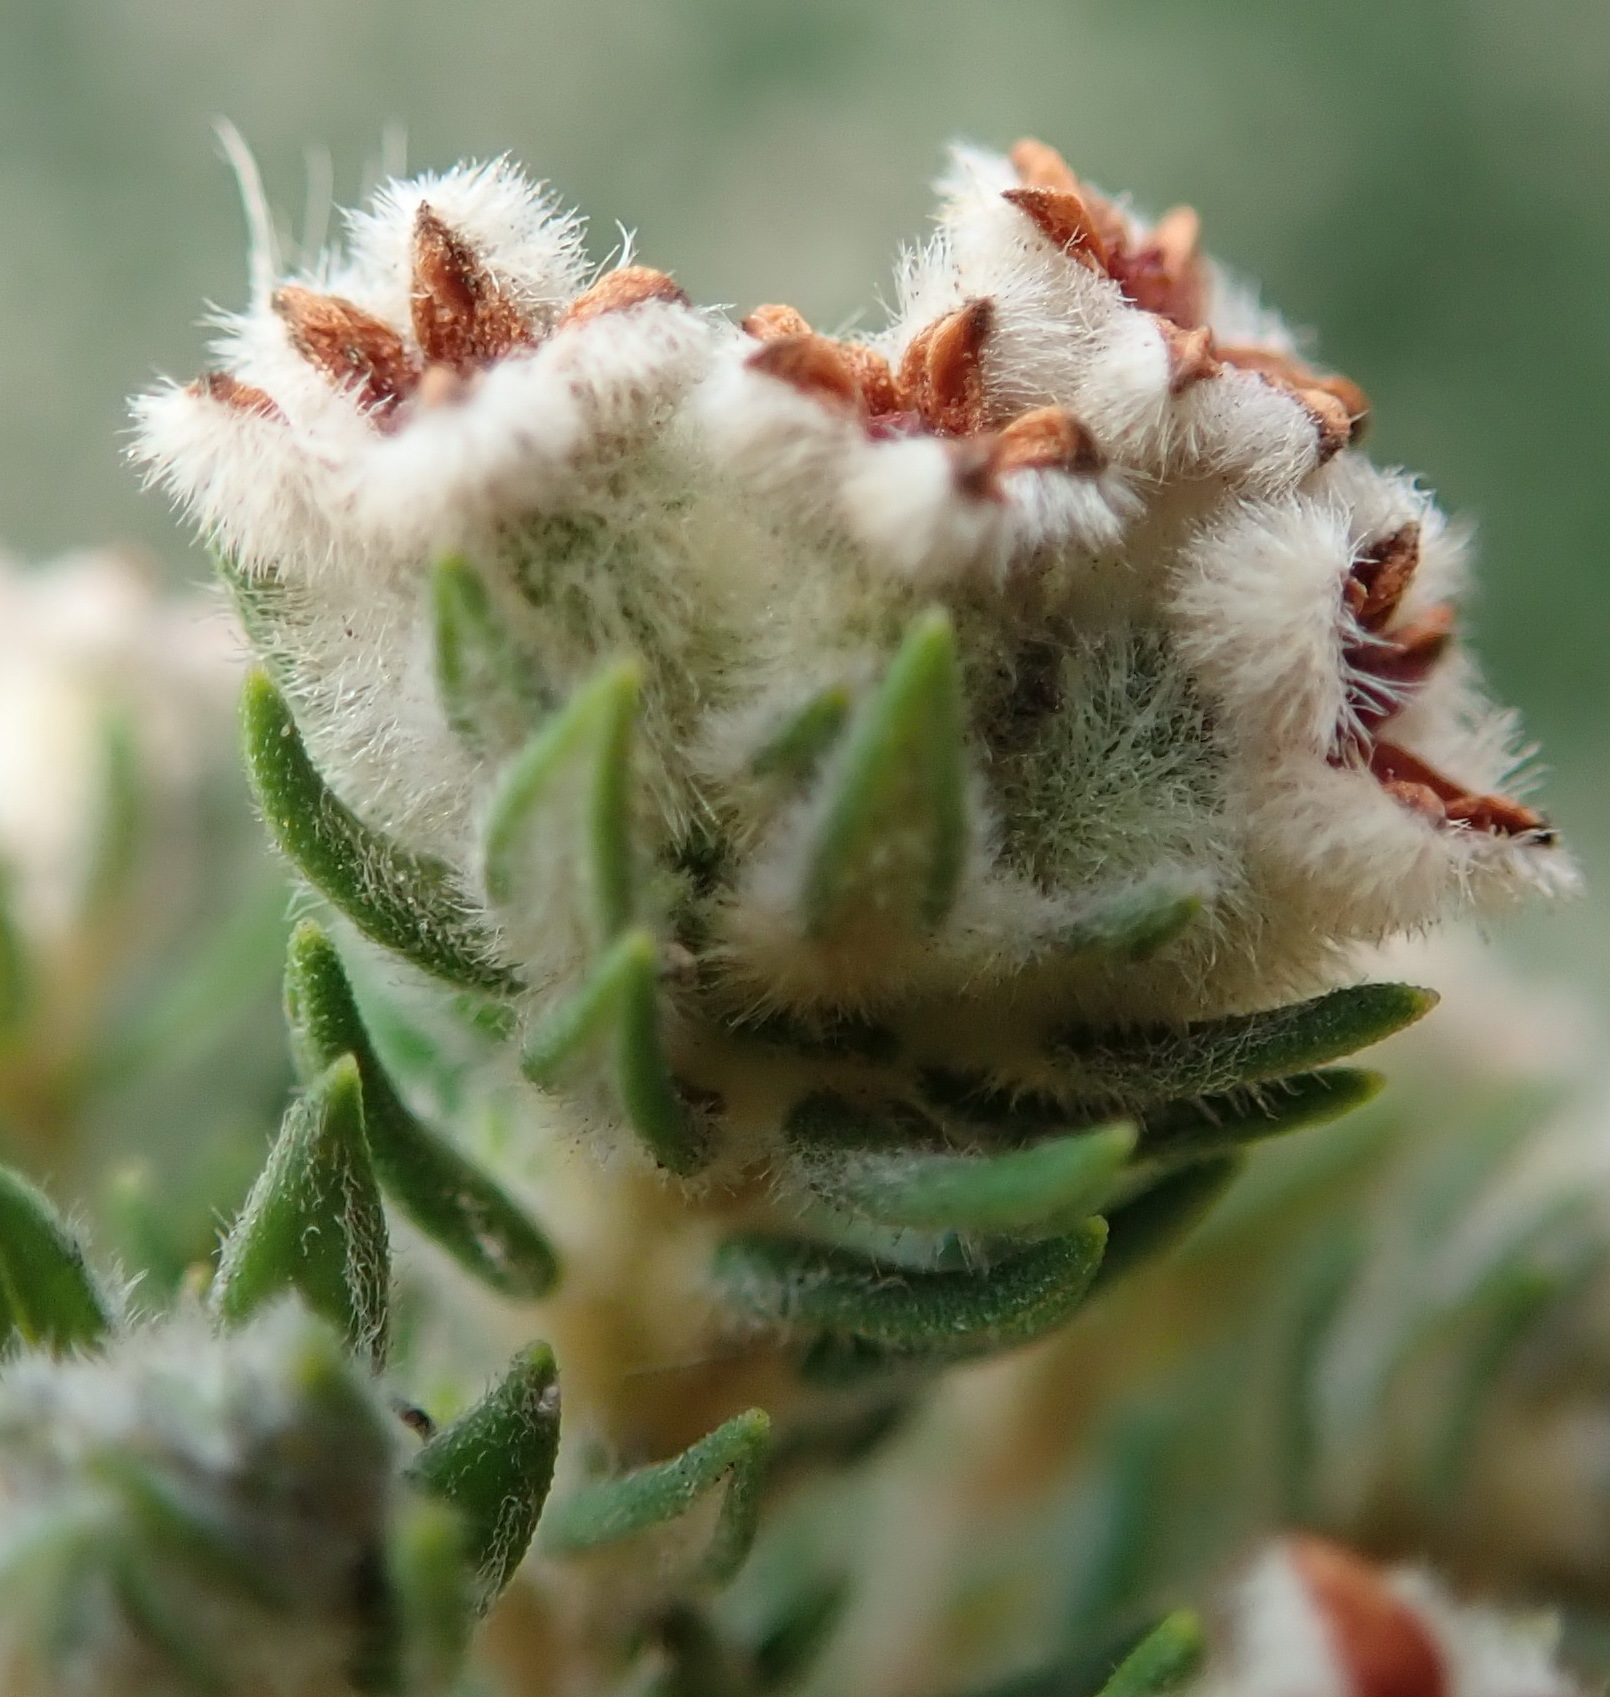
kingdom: Plantae
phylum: Tracheophyta
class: Magnoliopsida
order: Rosales
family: Rhamnaceae
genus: Phylica
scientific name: Phylica purpurea
